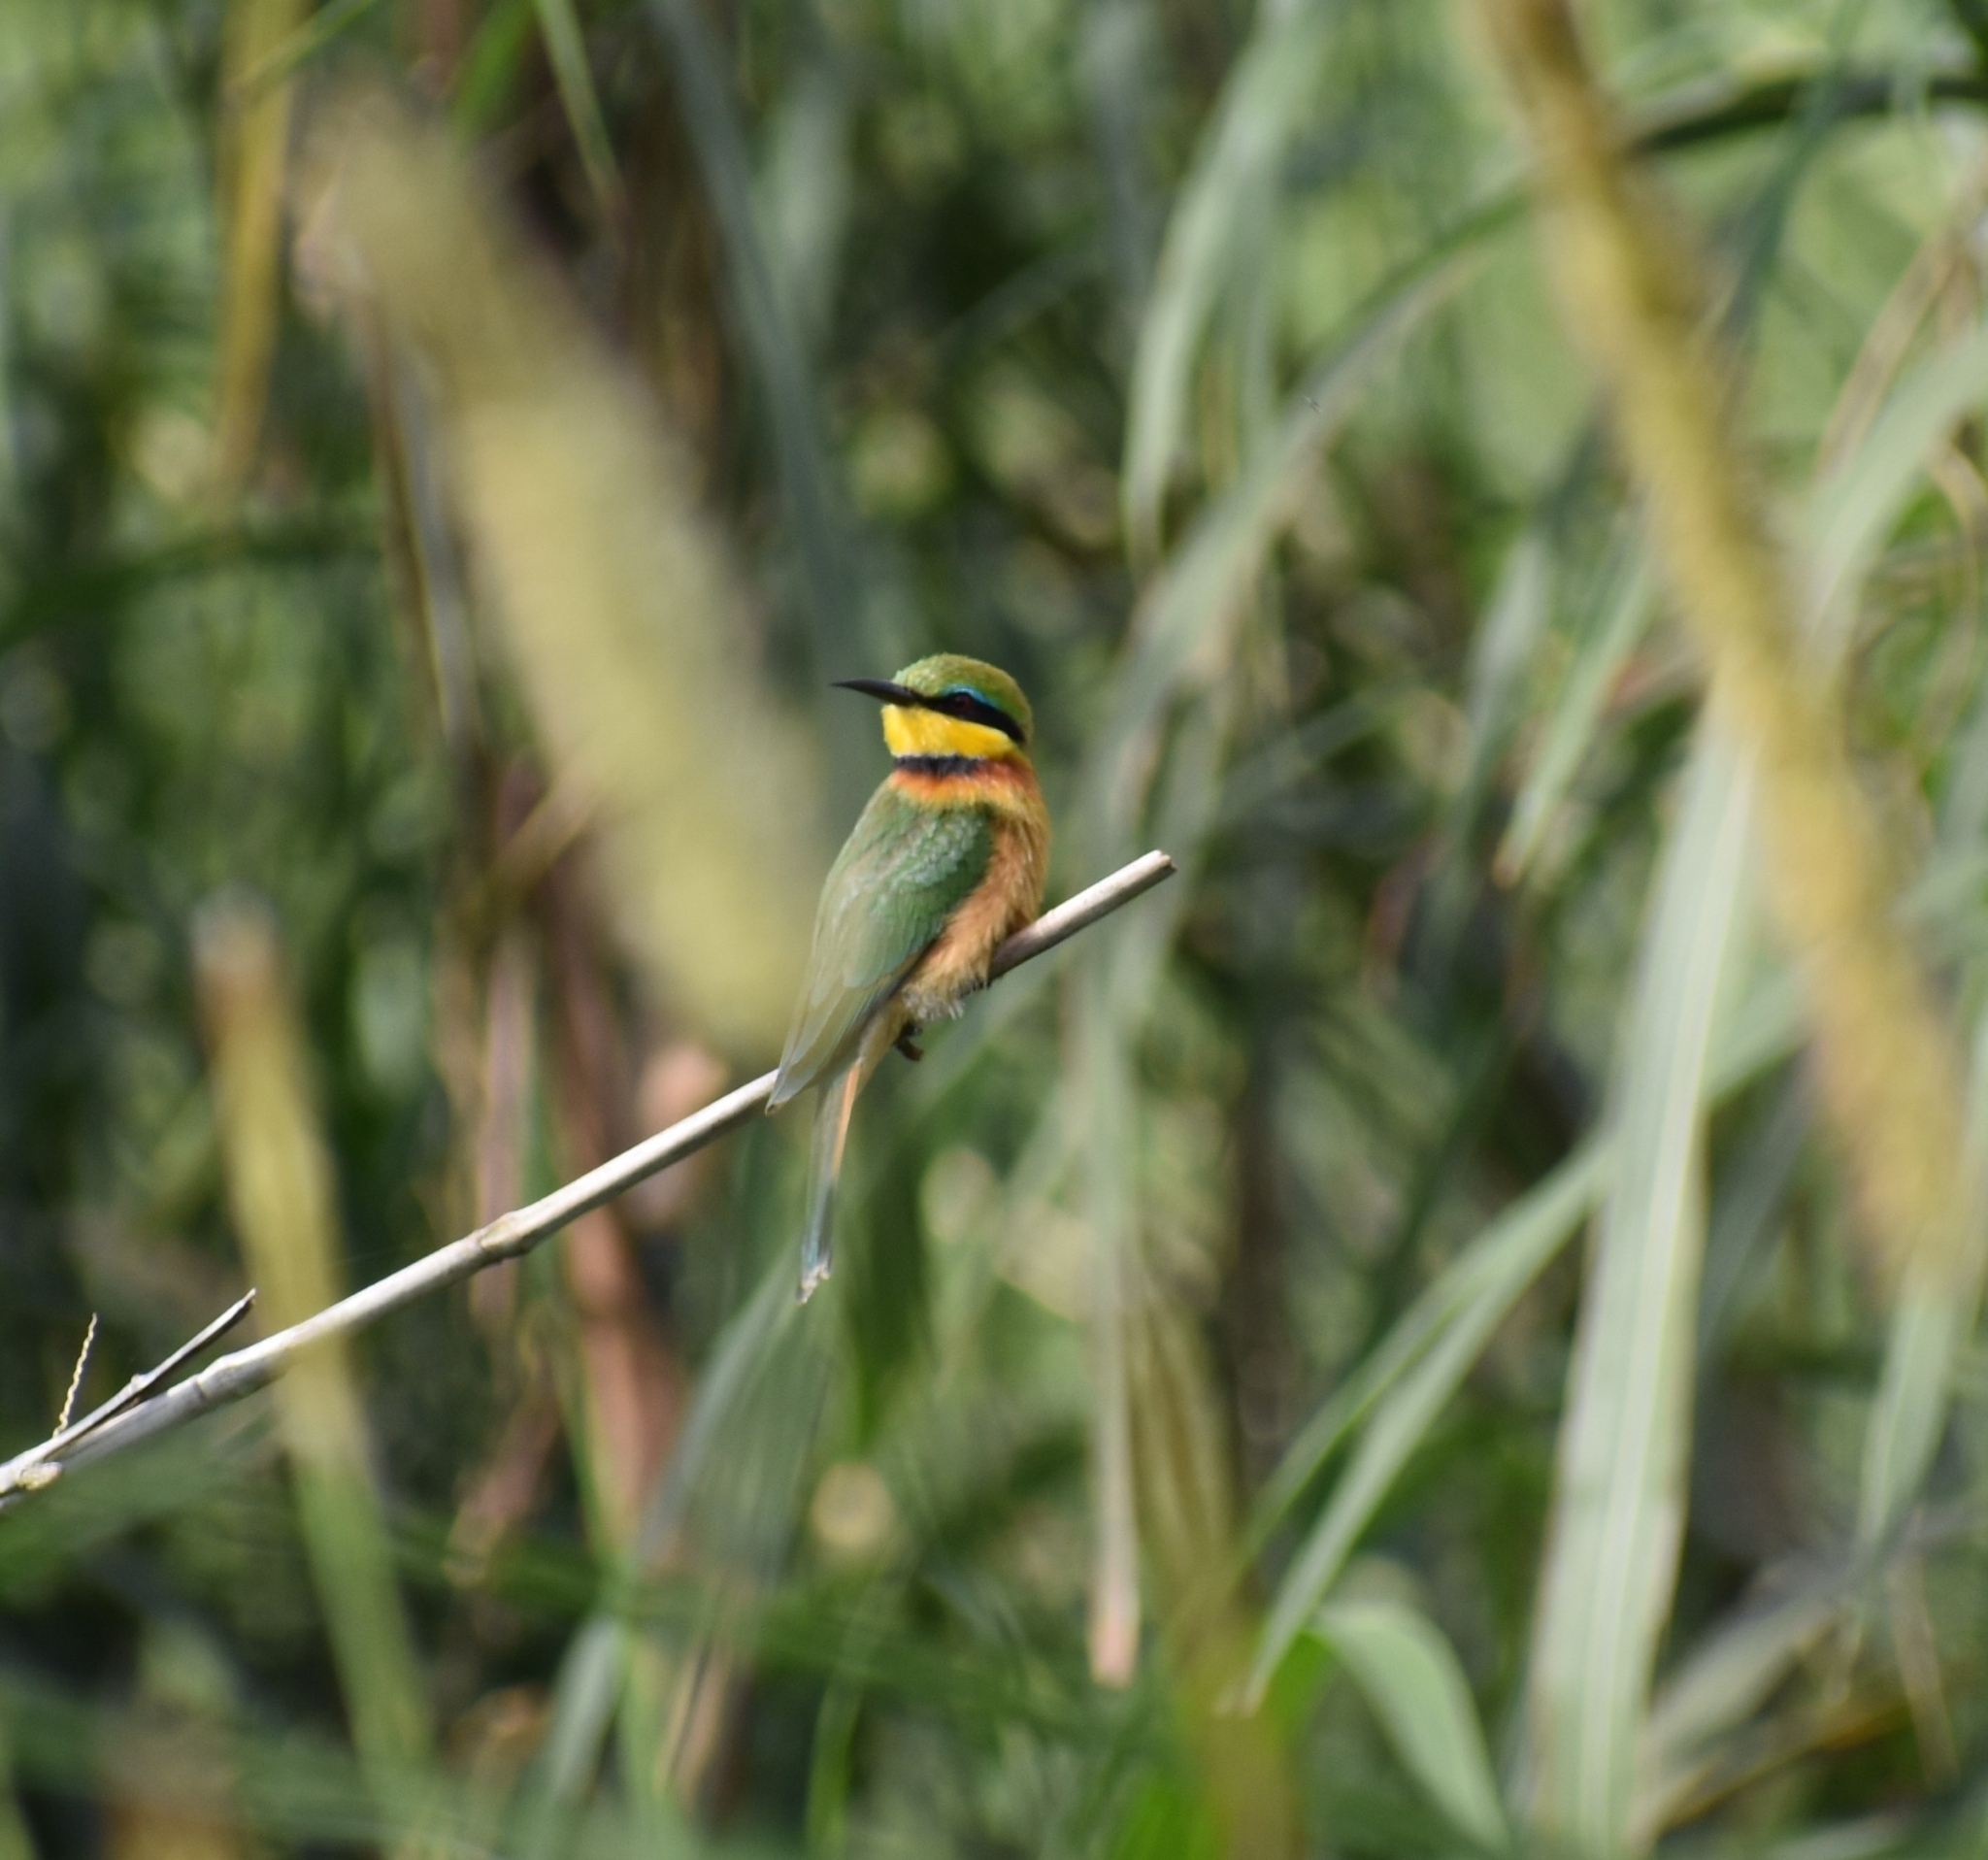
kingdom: Animalia
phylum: Chordata
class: Aves
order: Coraciiformes
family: Meropidae
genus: Merops
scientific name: Merops pusillus
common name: Little bee-eater
